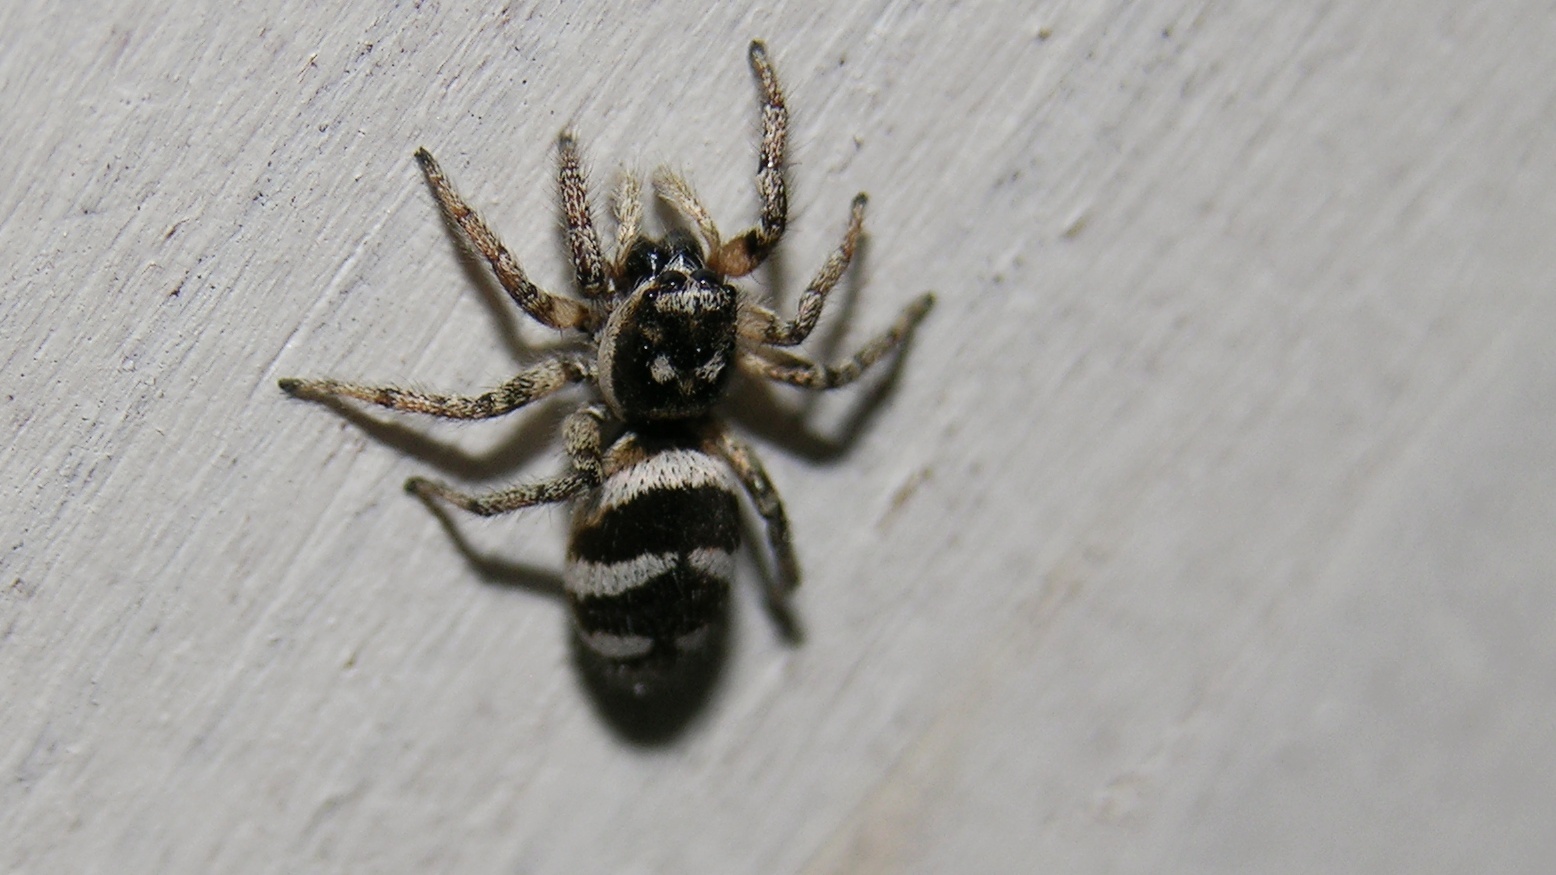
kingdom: Animalia
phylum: Arthropoda
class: Arachnida
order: Araneae
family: Salticidae
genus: Salticus
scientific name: Salticus scenicus
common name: Zebra jumper
